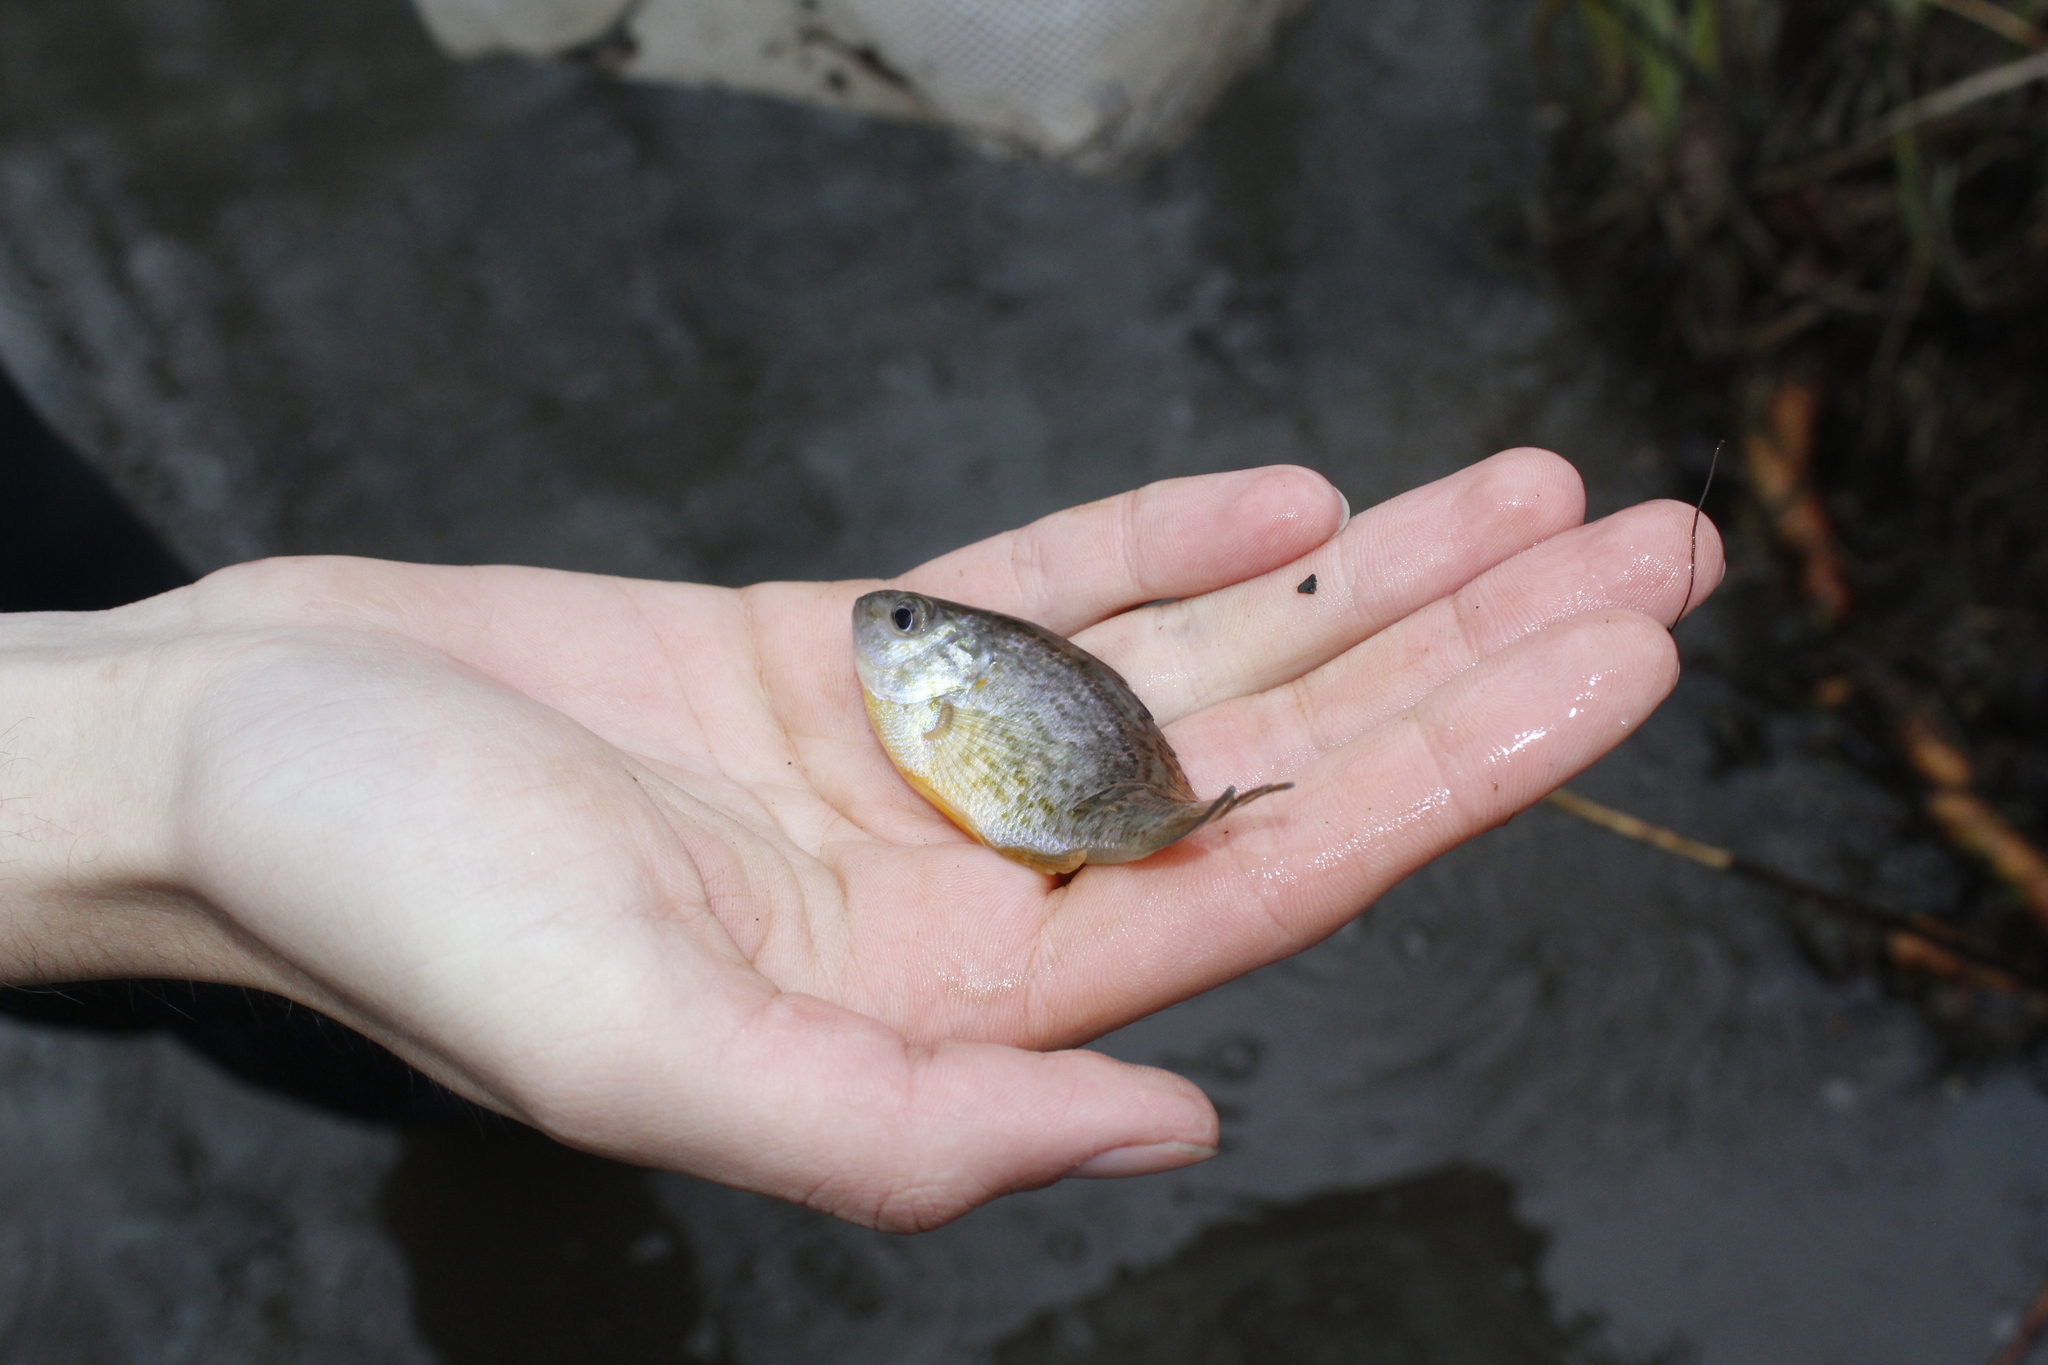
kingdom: Animalia
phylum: Chordata
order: Perciformes
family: Centrarchidae
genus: Lepomis
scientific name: Lepomis gibbosus
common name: Pumpkinseed
